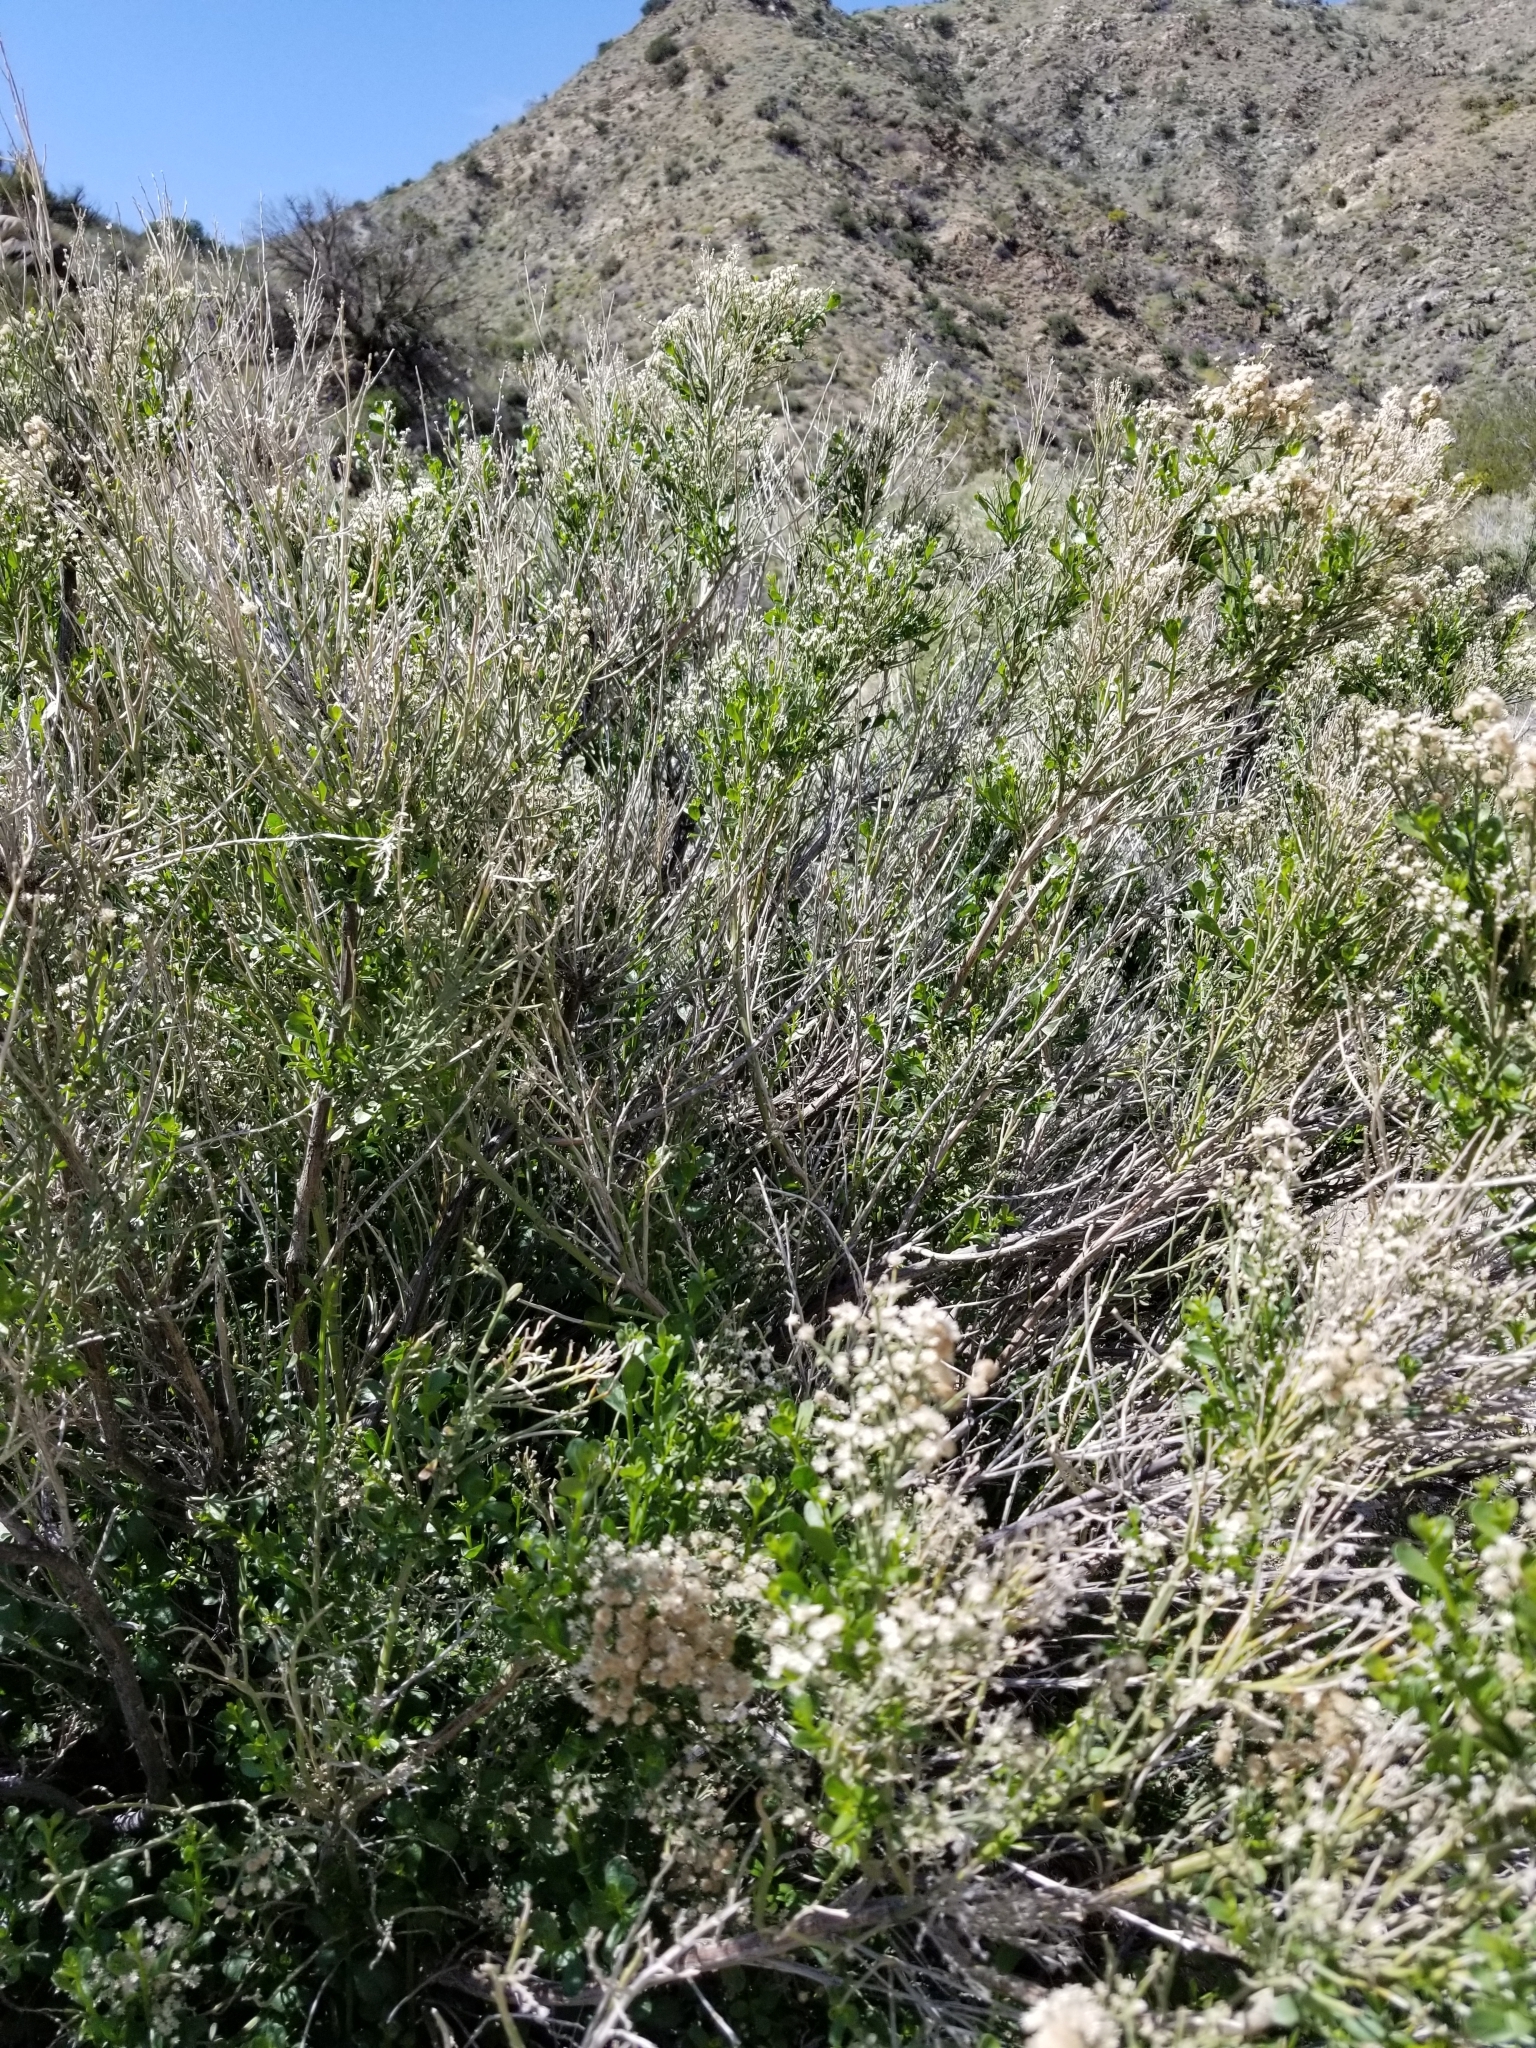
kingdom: Plantae
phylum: Tracheophyta
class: Magnoliopsida
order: Asterales
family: Asteraceae
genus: Baccharis
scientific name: Baccharis salicifolia
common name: Sticky baccharis
